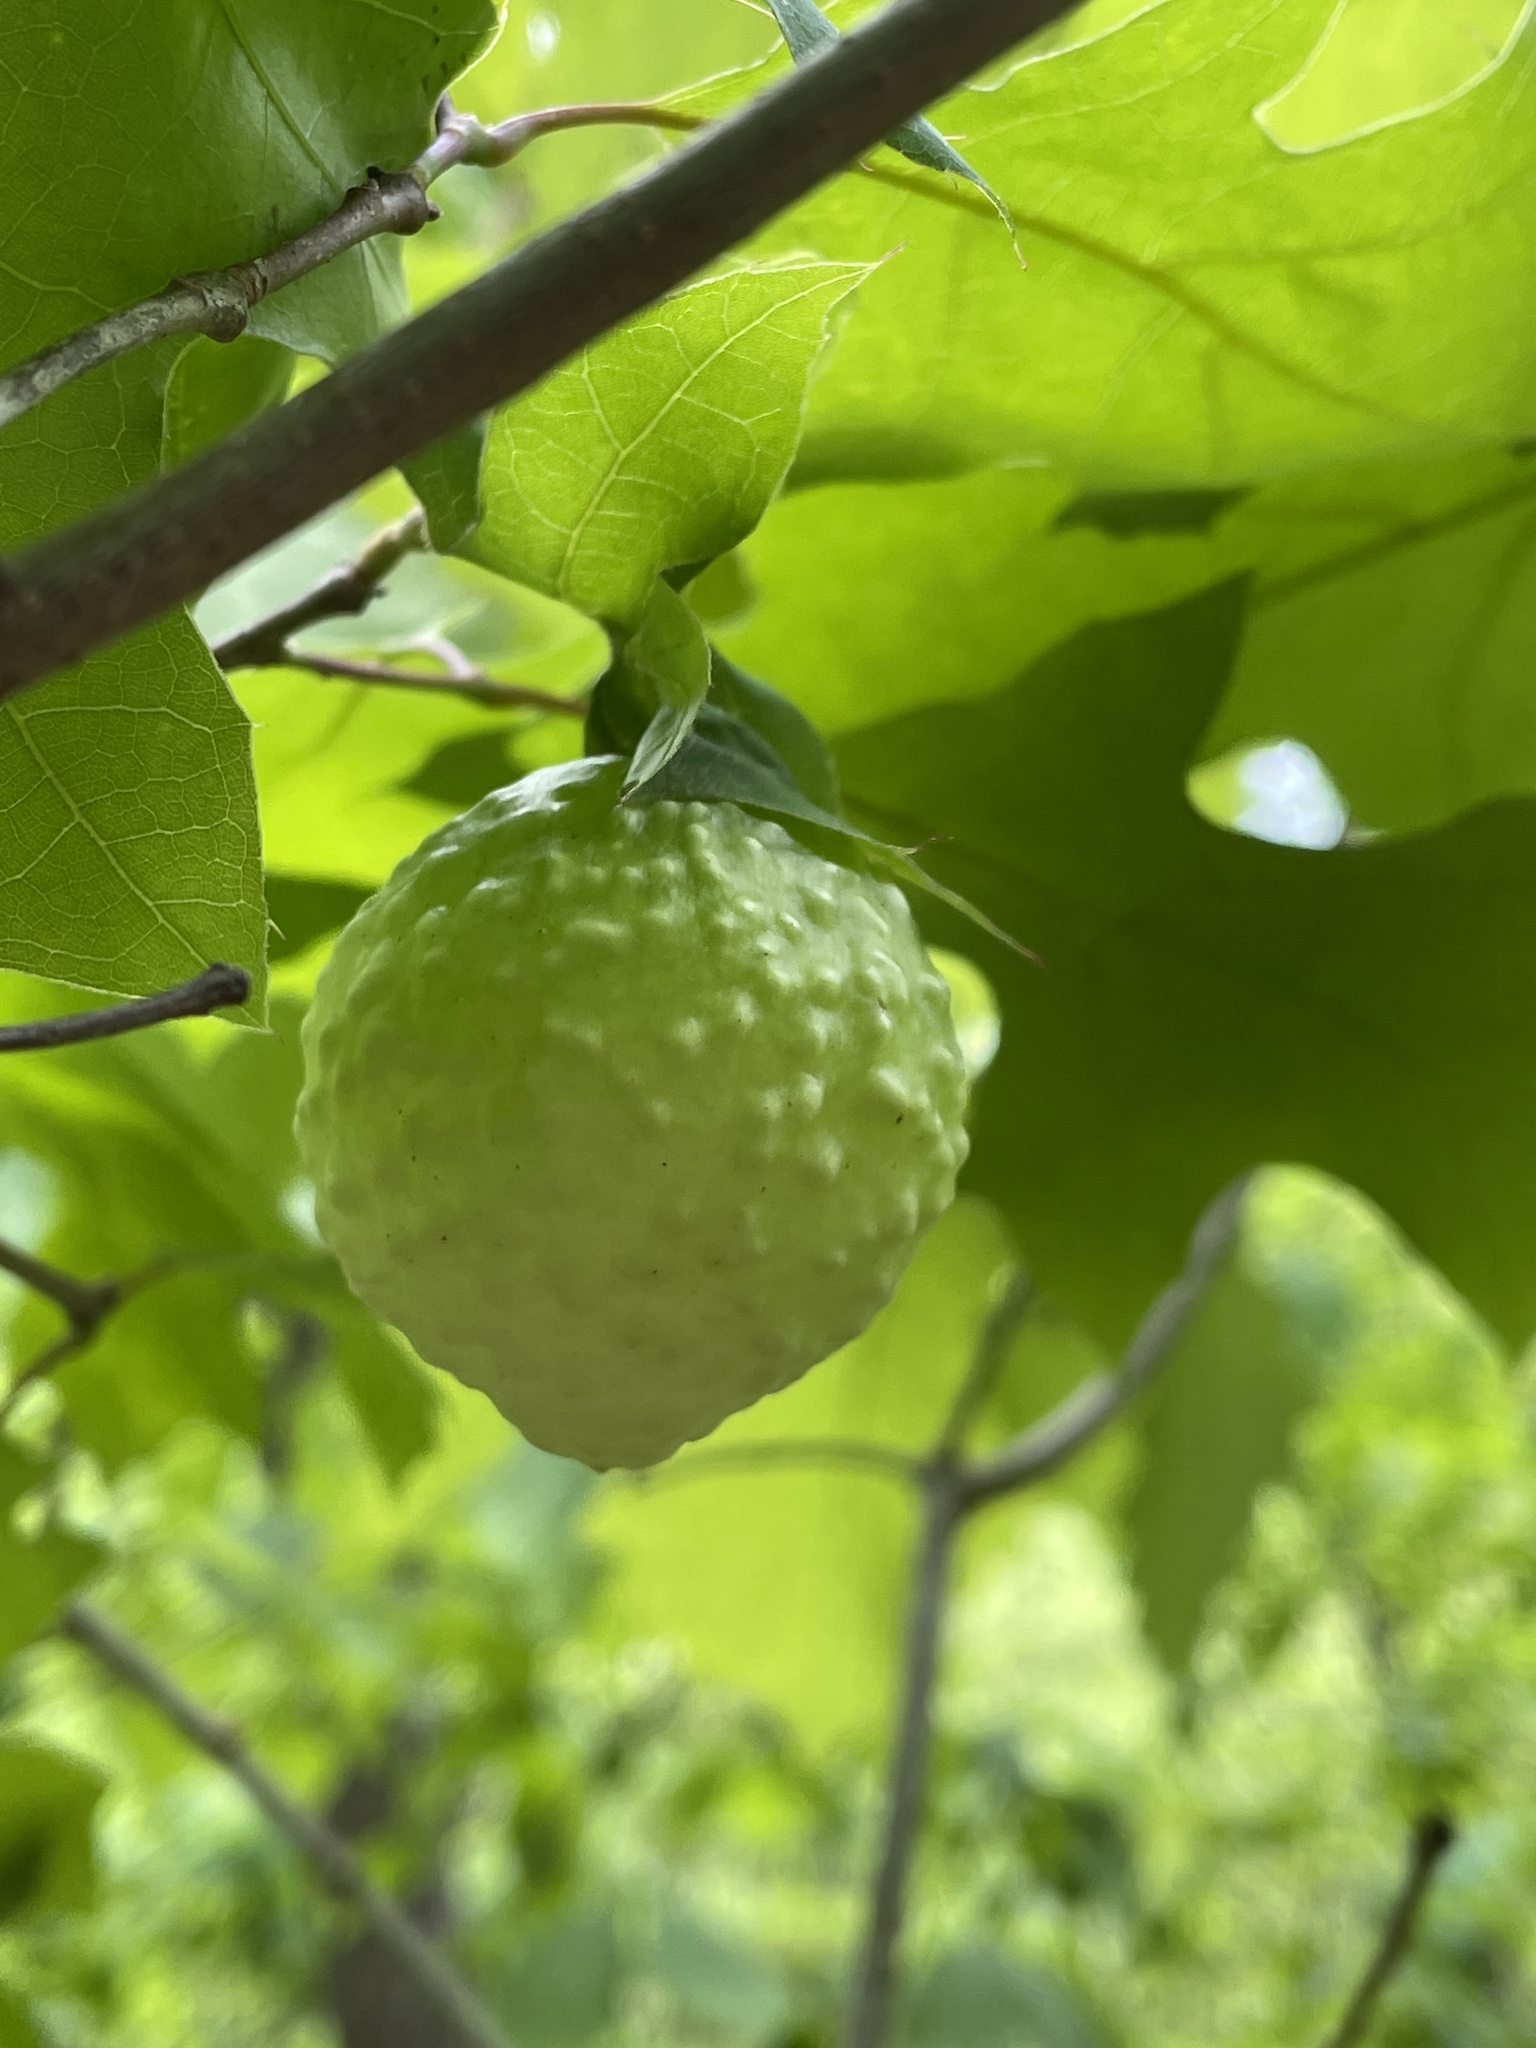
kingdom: Animalia
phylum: Arthropoda
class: Insecta
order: Hymenoptera
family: Cynipidae
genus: Amphibolips
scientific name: Amphibolips
